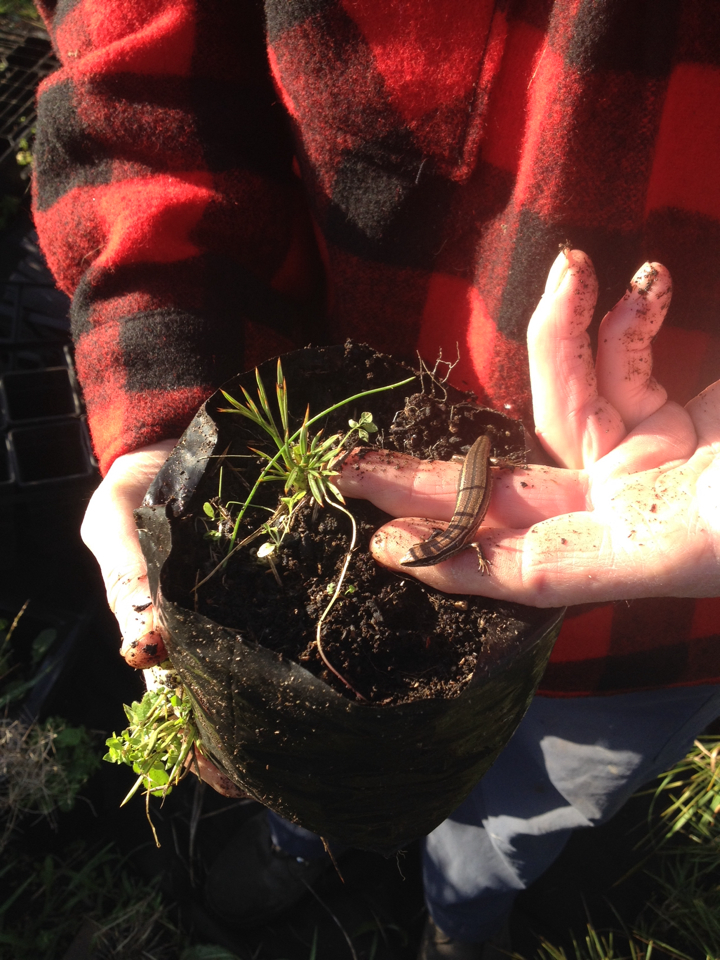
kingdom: Animalia
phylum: Chordata
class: Squamata
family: Scincidae
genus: Oligosoma
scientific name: Oligosoma polychroma
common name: Common new zealand skink
